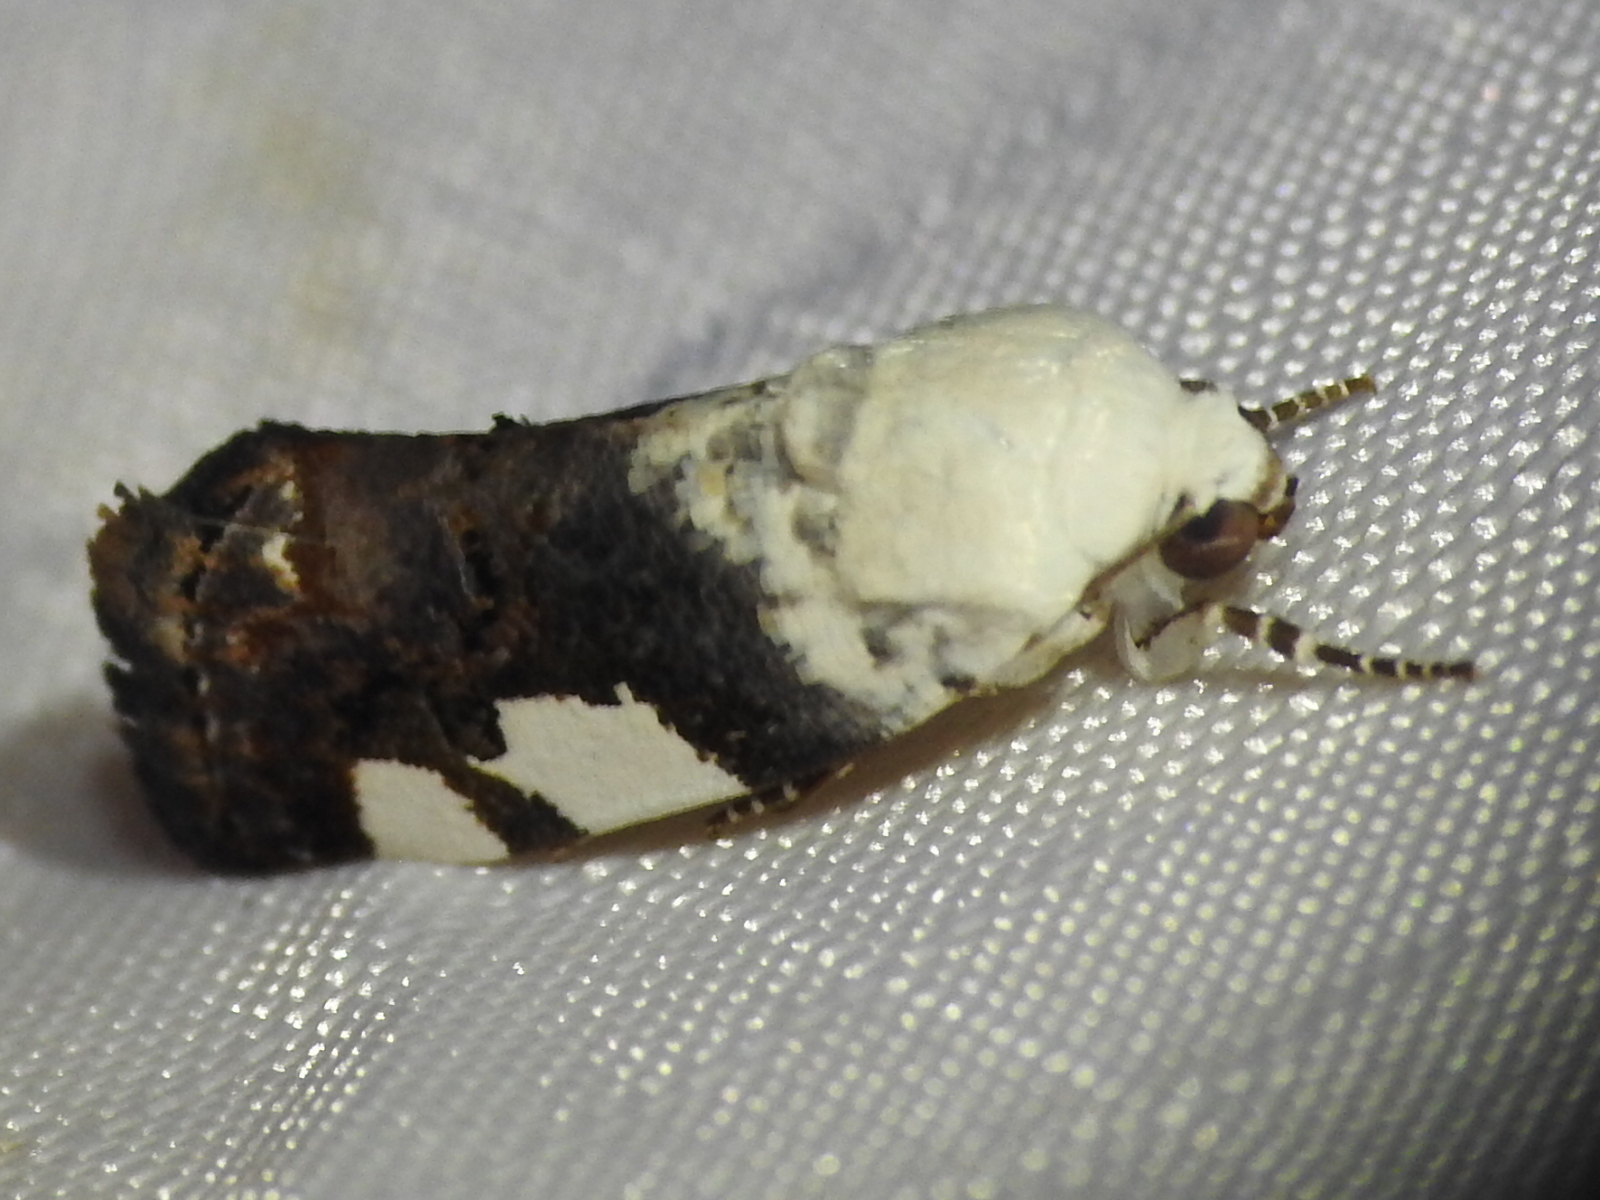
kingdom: Animalia
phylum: Arthropoda
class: Insecta
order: Lepidoptera
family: Noctuidae
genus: Acontia
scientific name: Acontia quadriplaga
